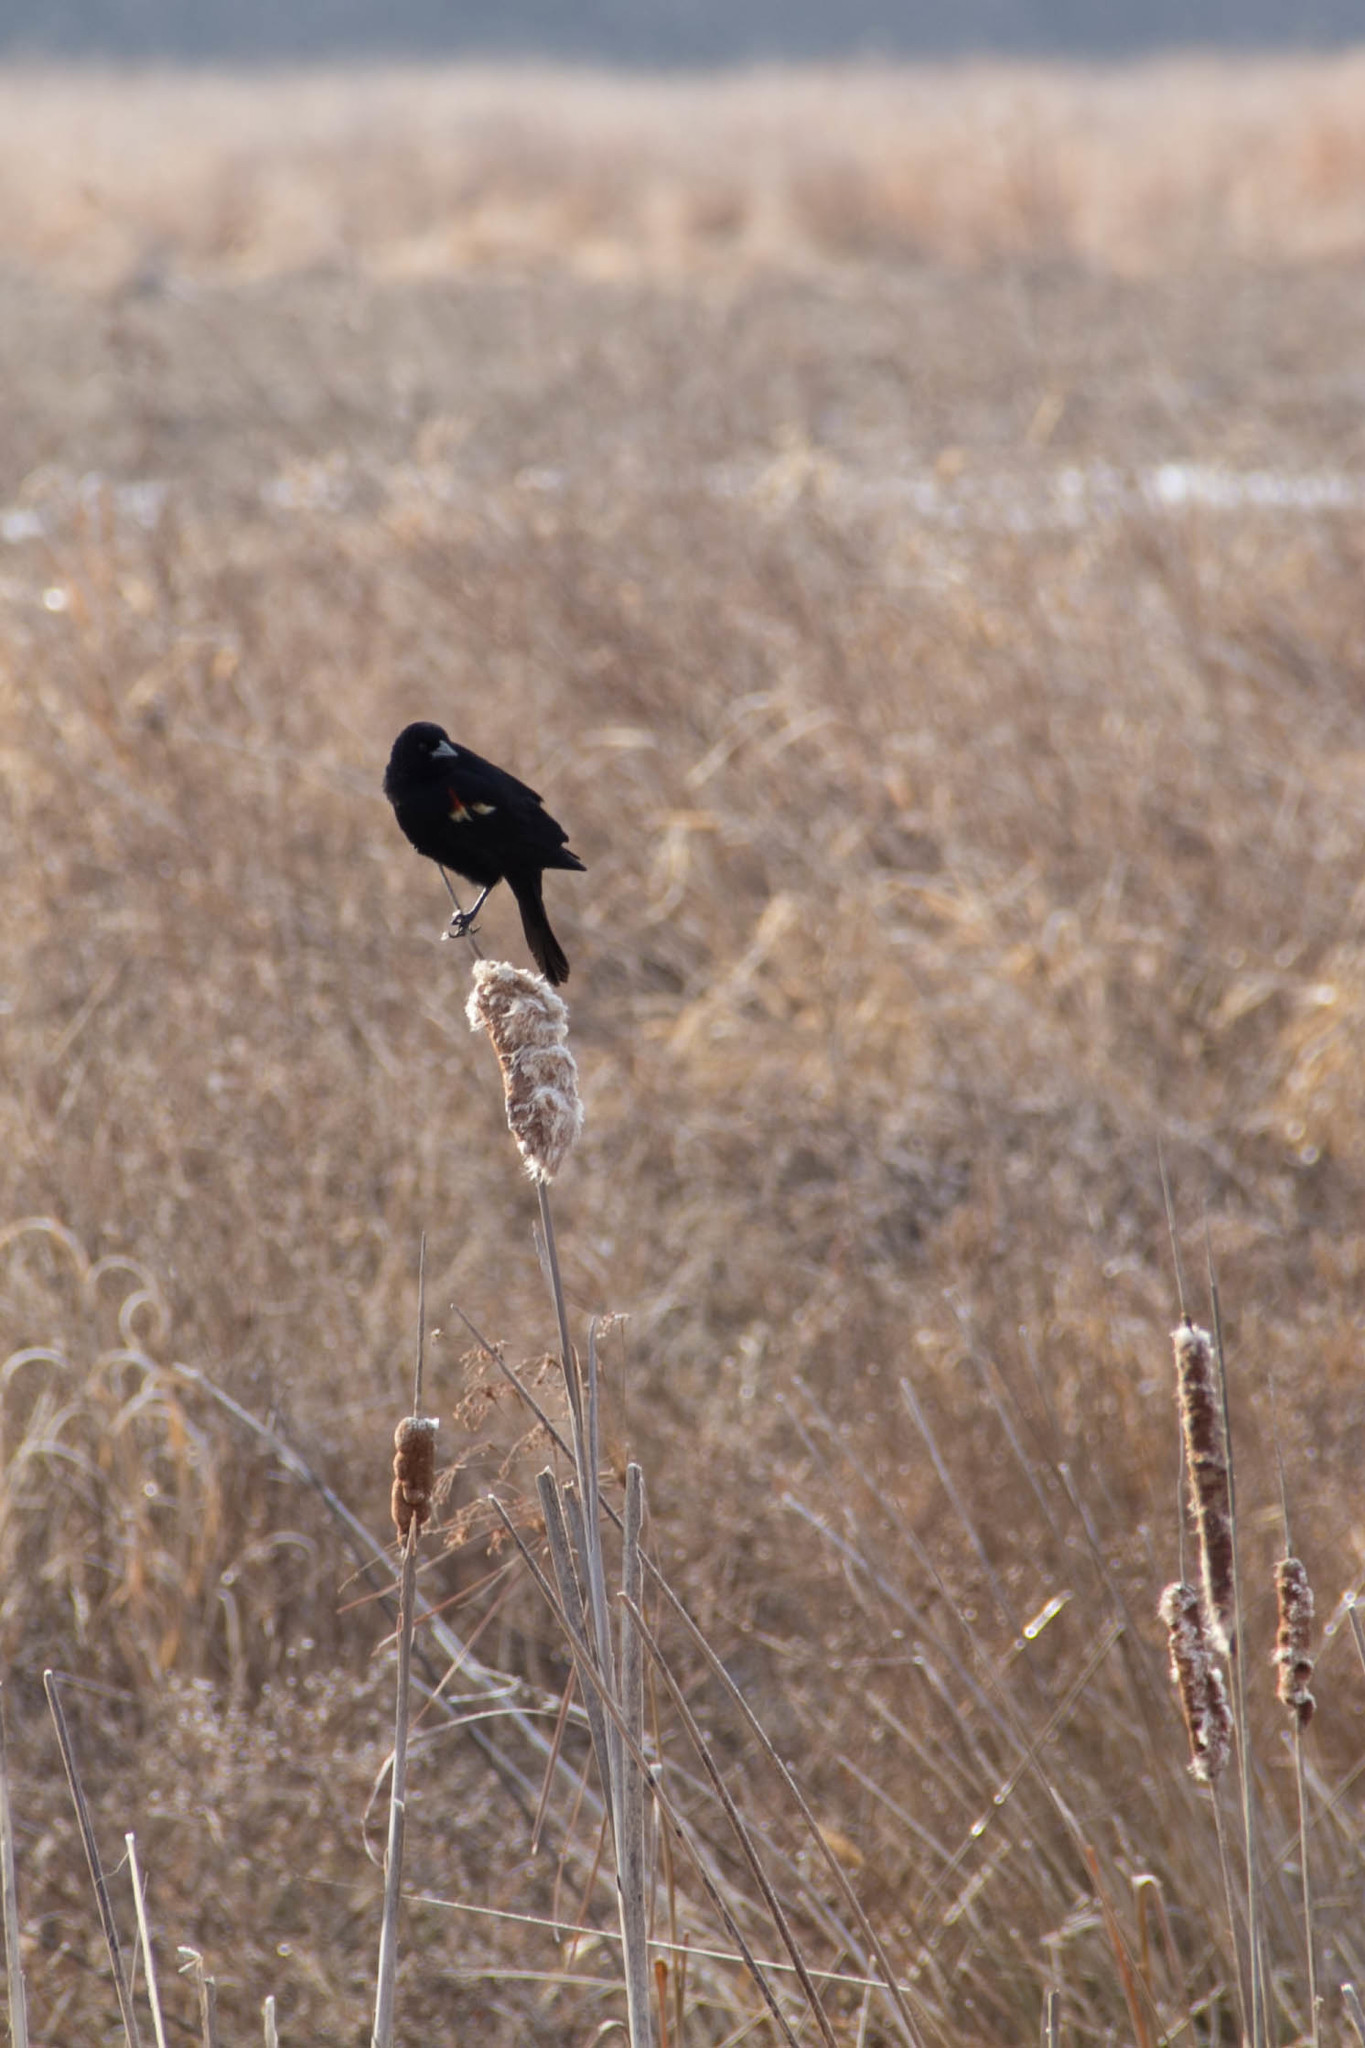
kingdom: Animalia
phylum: Chordata
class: Aves
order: Passeriformes
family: Icteridae
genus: Agelaius
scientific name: Agelaius phoeniceus
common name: Red-winged blackbird
